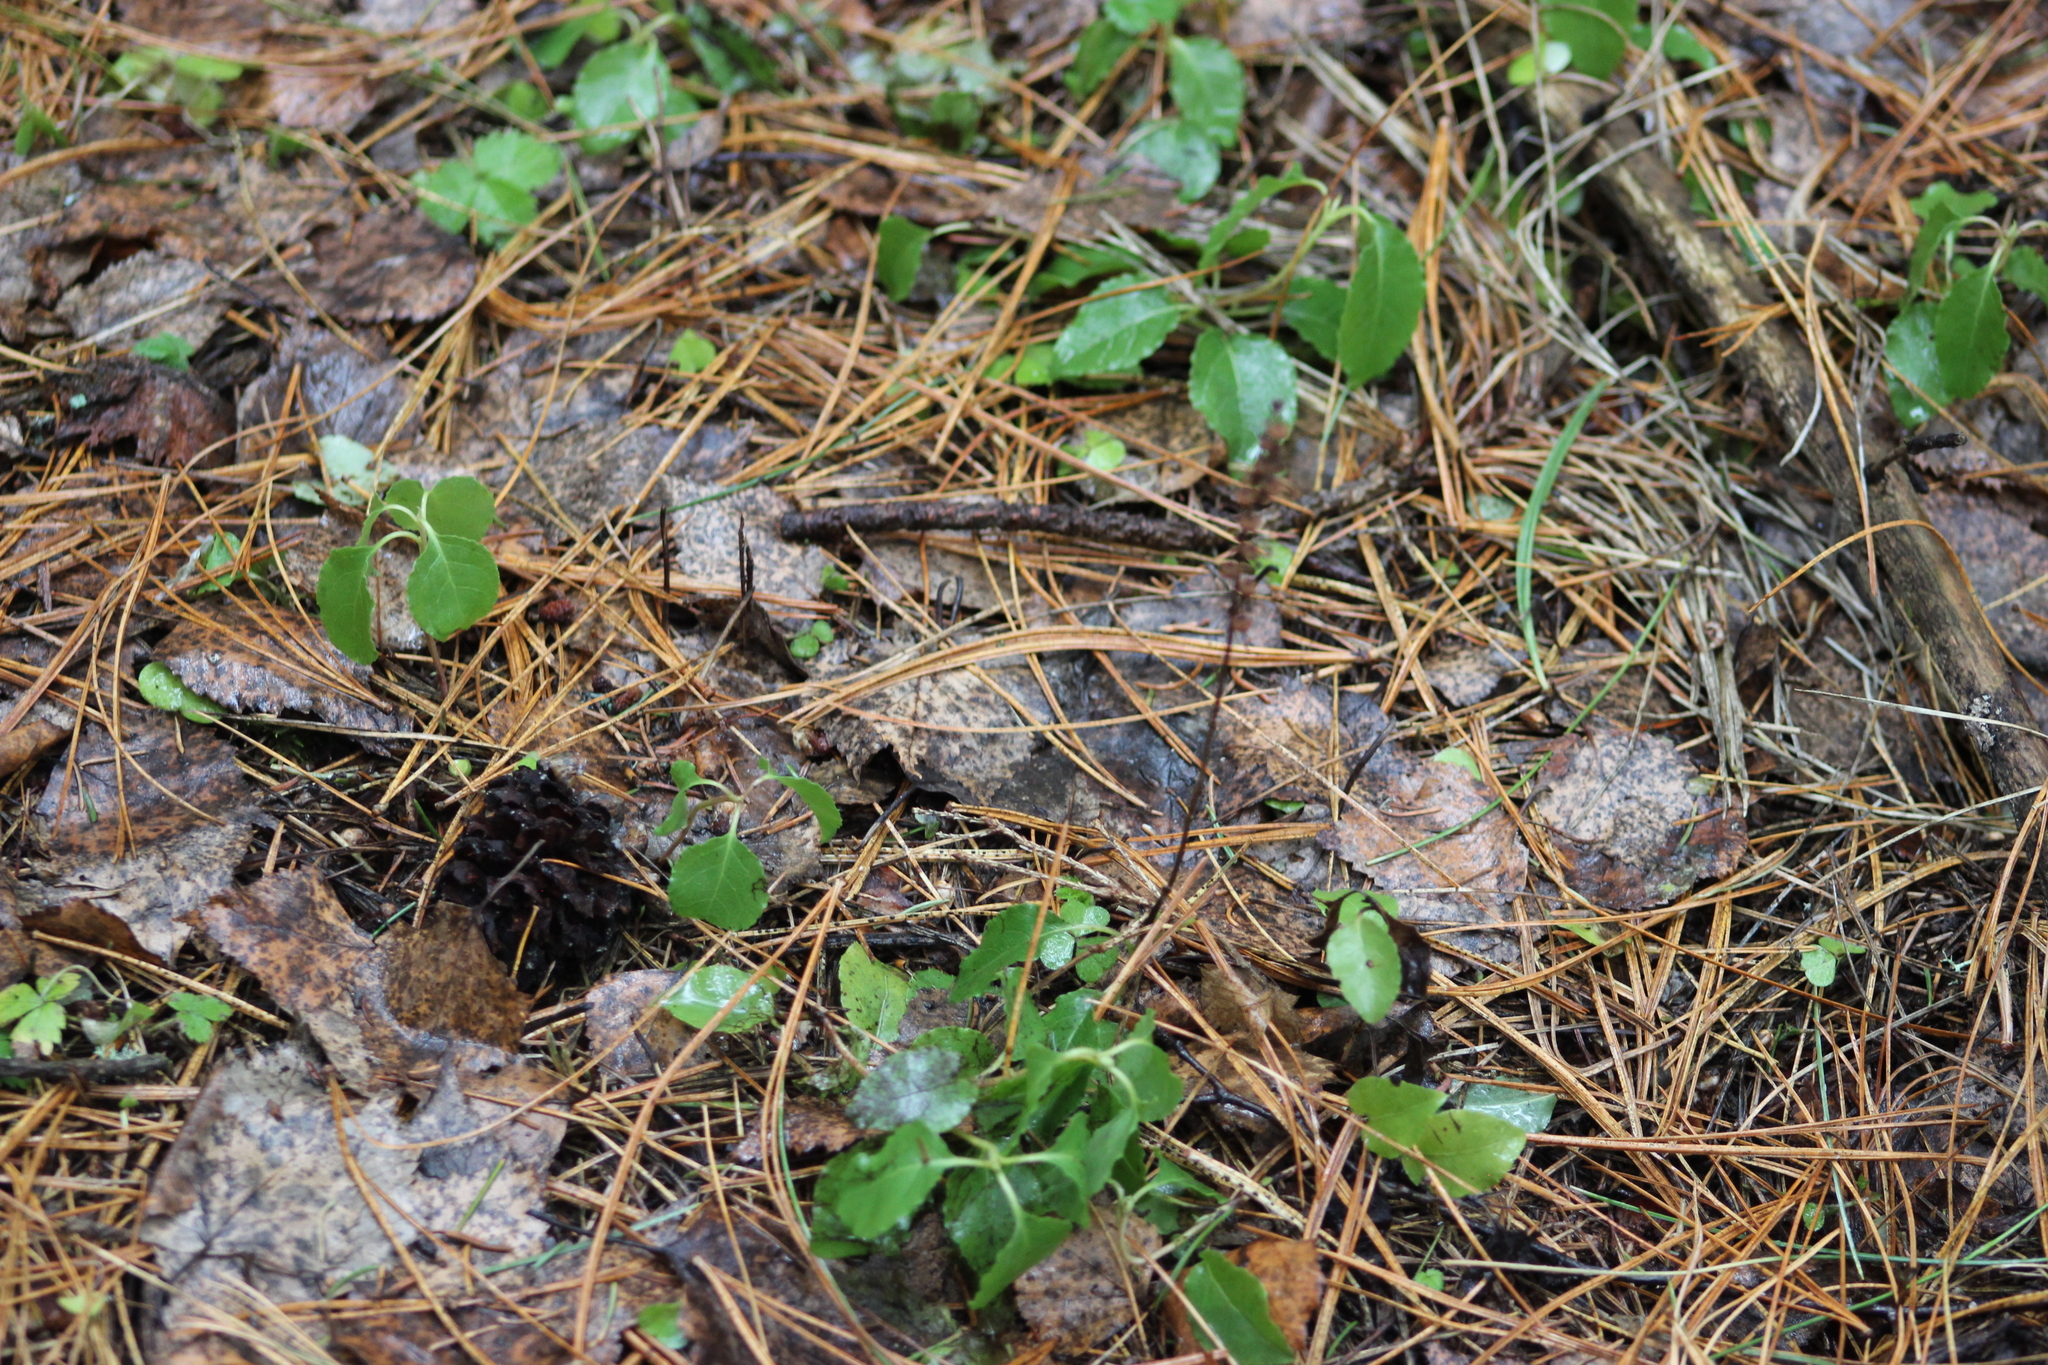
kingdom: Plantae
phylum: Tracheophyta
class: Magnoliopsida
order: Ericales
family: Ericaceae
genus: Orthilia
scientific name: Orthilia secunda
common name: One-sided orthilia
